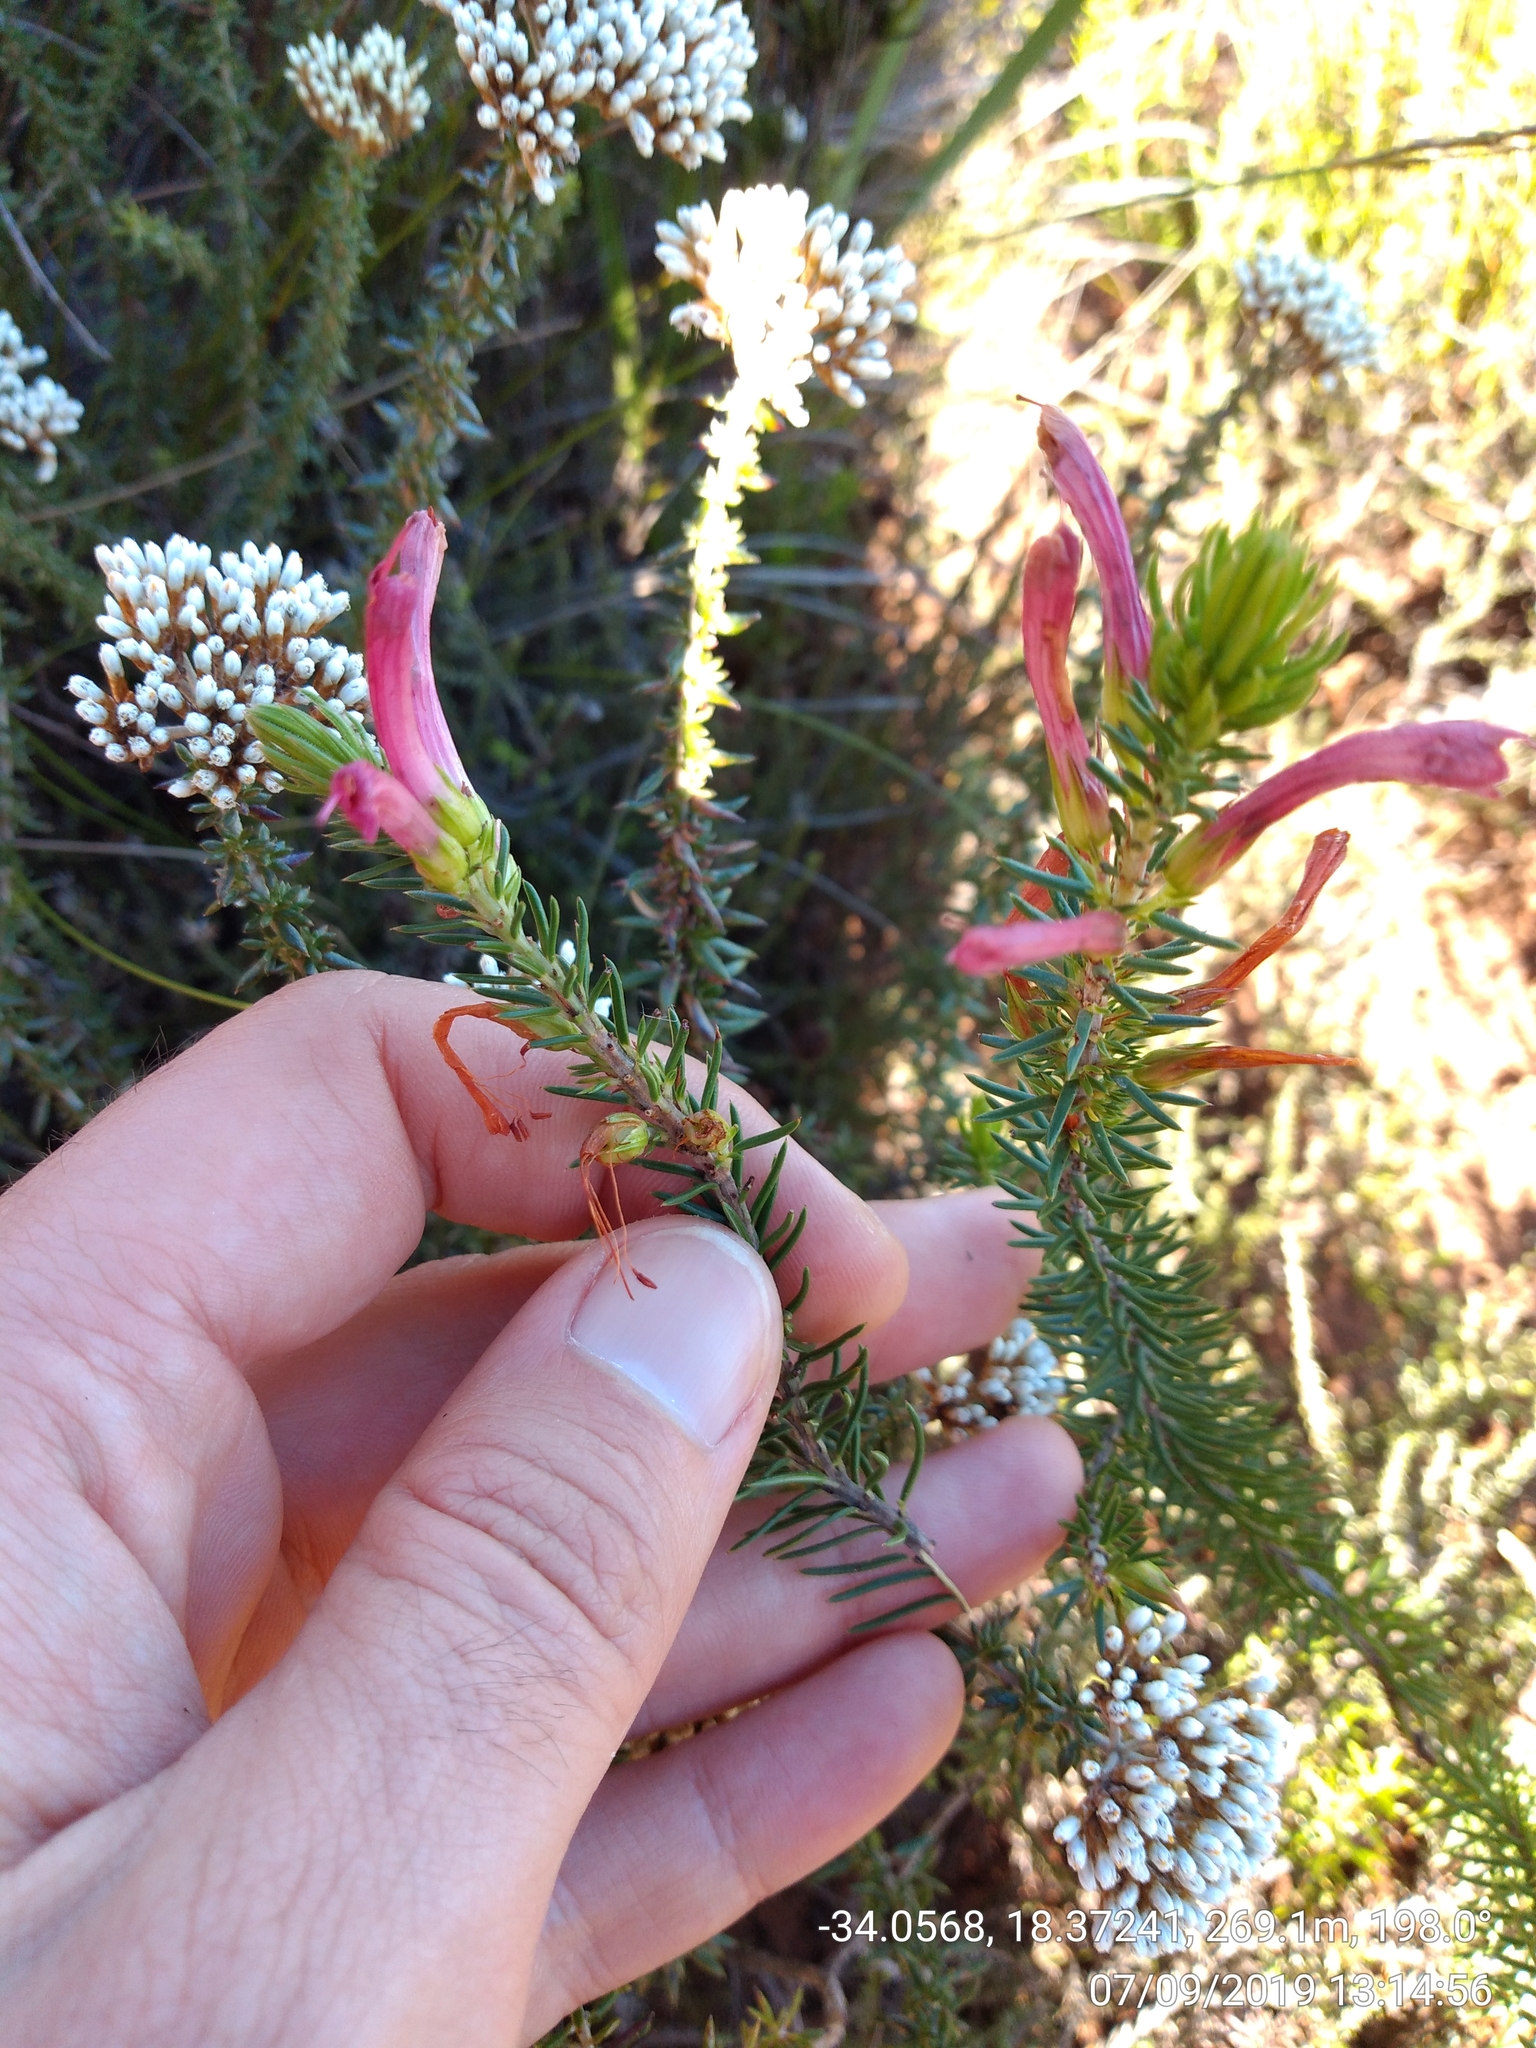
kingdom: Plantae
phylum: Tracheophyta
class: Magnoliopsida
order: Ericales
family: Ericaceae
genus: Erica
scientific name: Erica abietina
